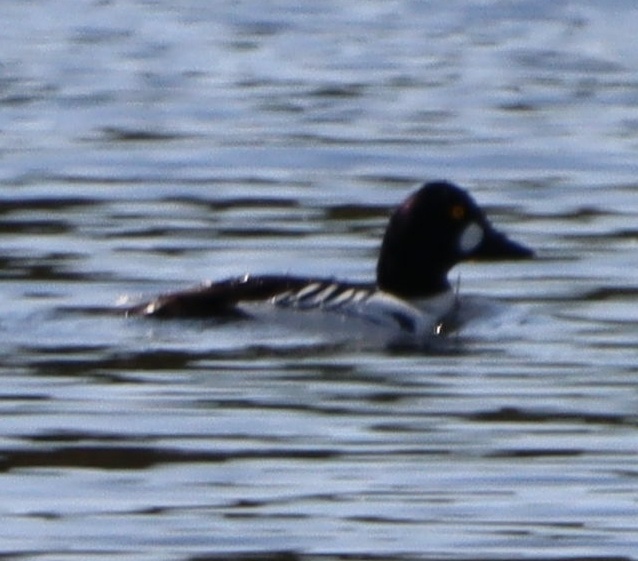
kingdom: Animalia
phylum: Chordata
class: Aves
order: Anseriformes
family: Anatidae
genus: Bucephala
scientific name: Bucephala clangula
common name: Common goldeneye
